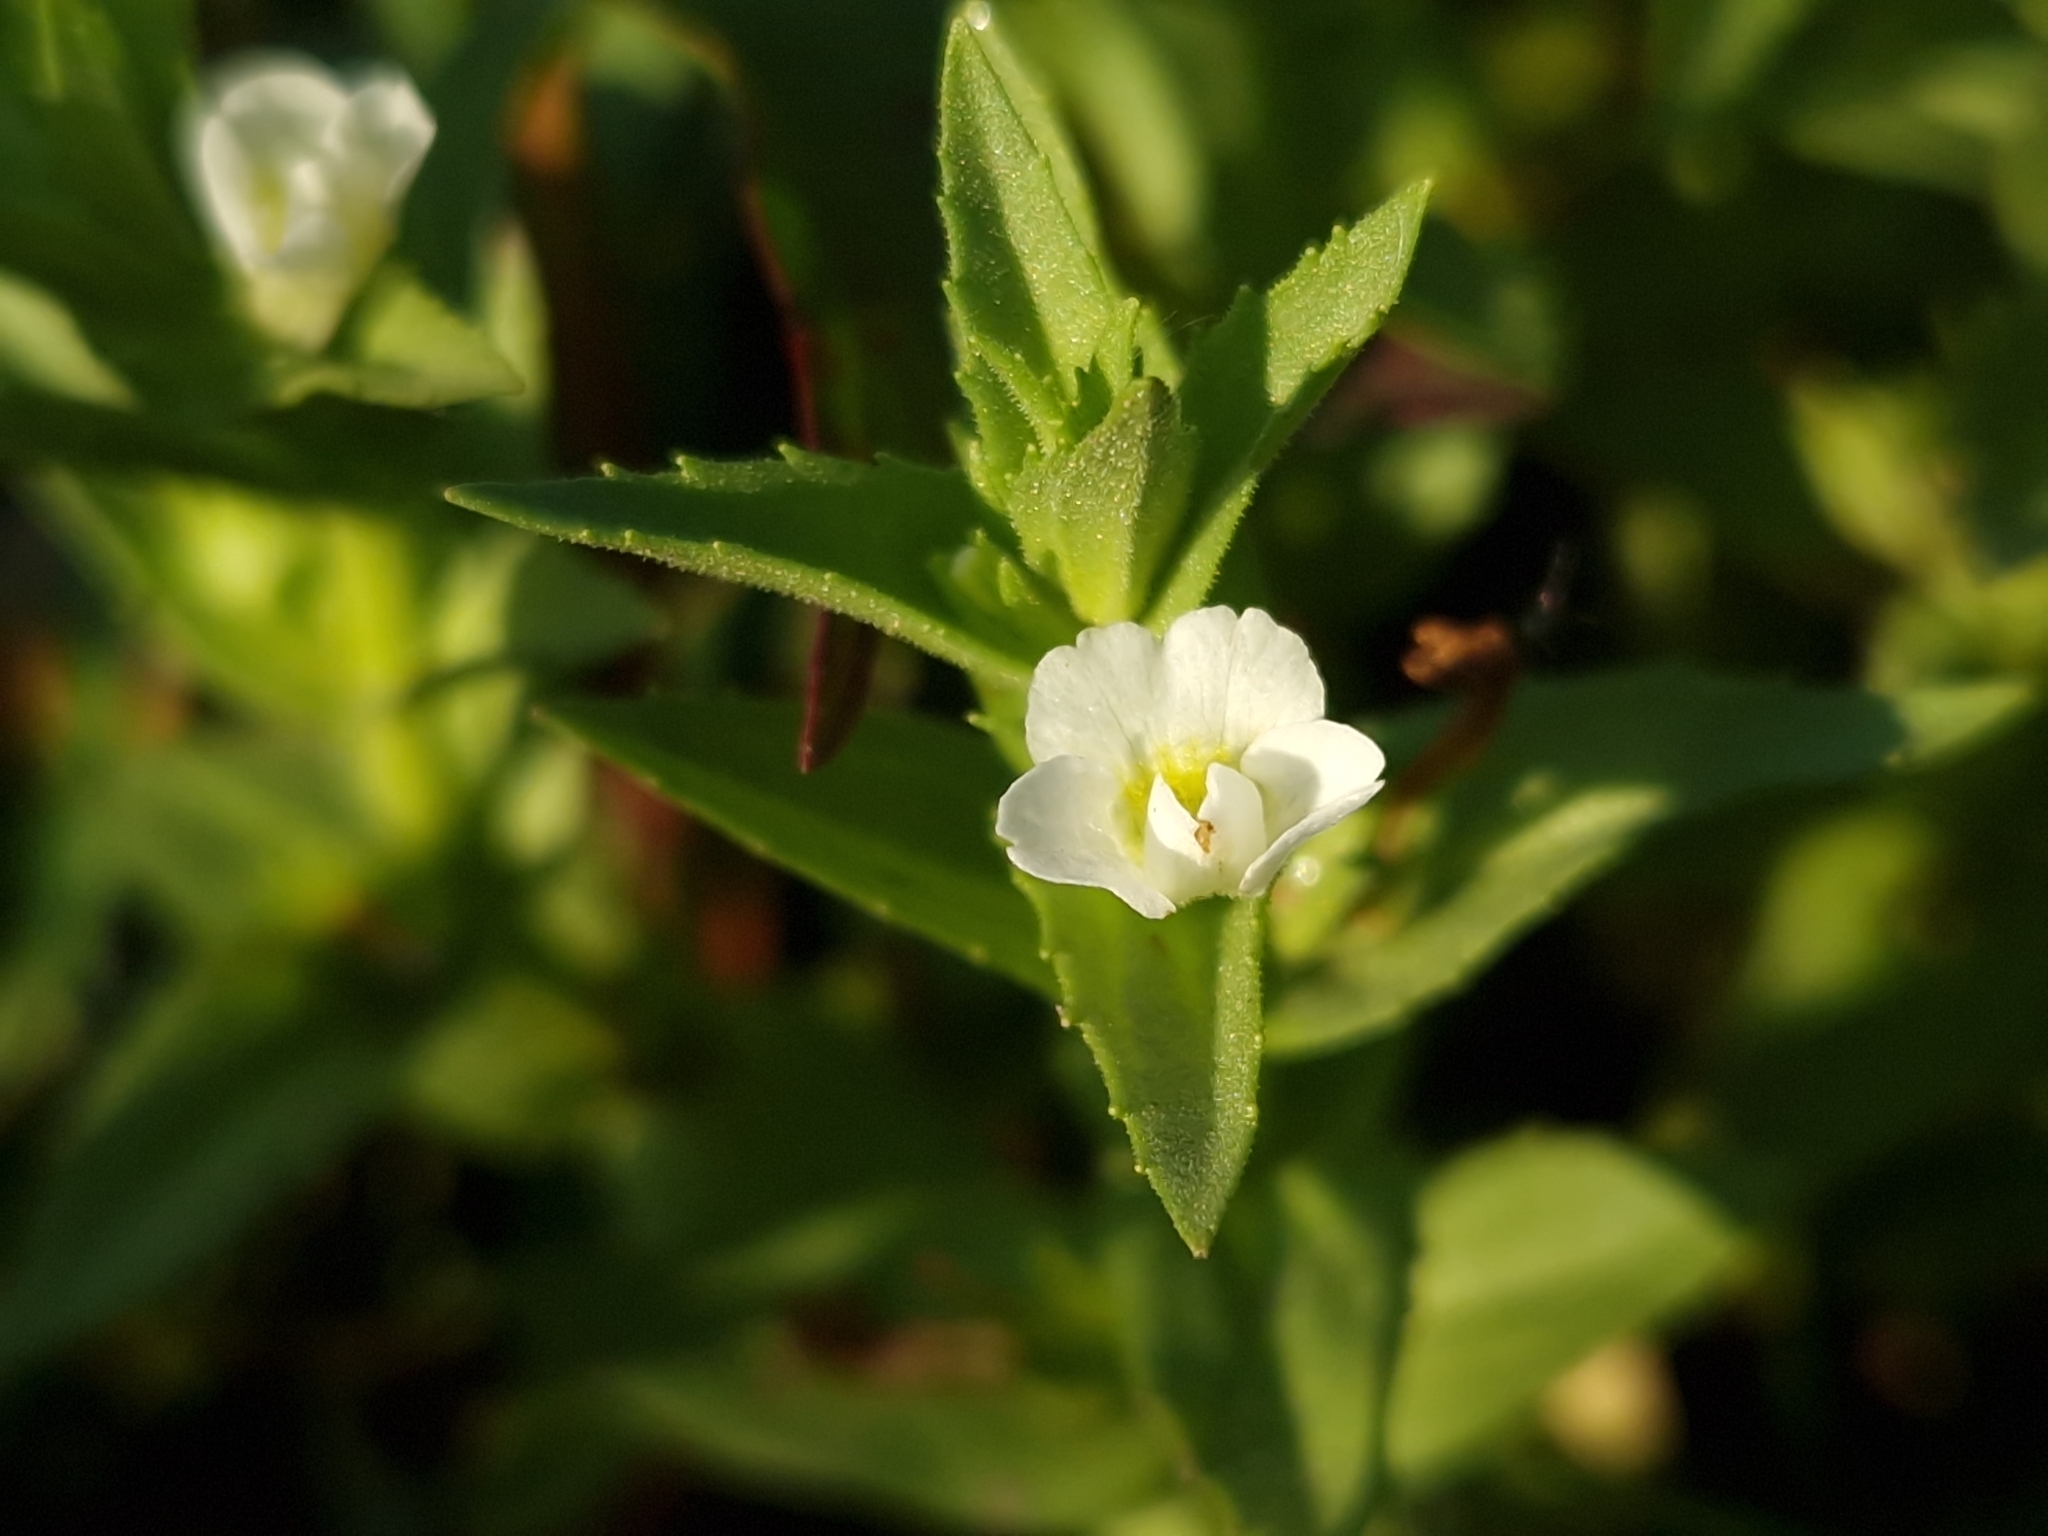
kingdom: Plantae
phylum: Tracheophyta
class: Magnoliopsida
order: Lamiales
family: Plantaginaceae
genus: Gratiola
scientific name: Gratiola peruviana
